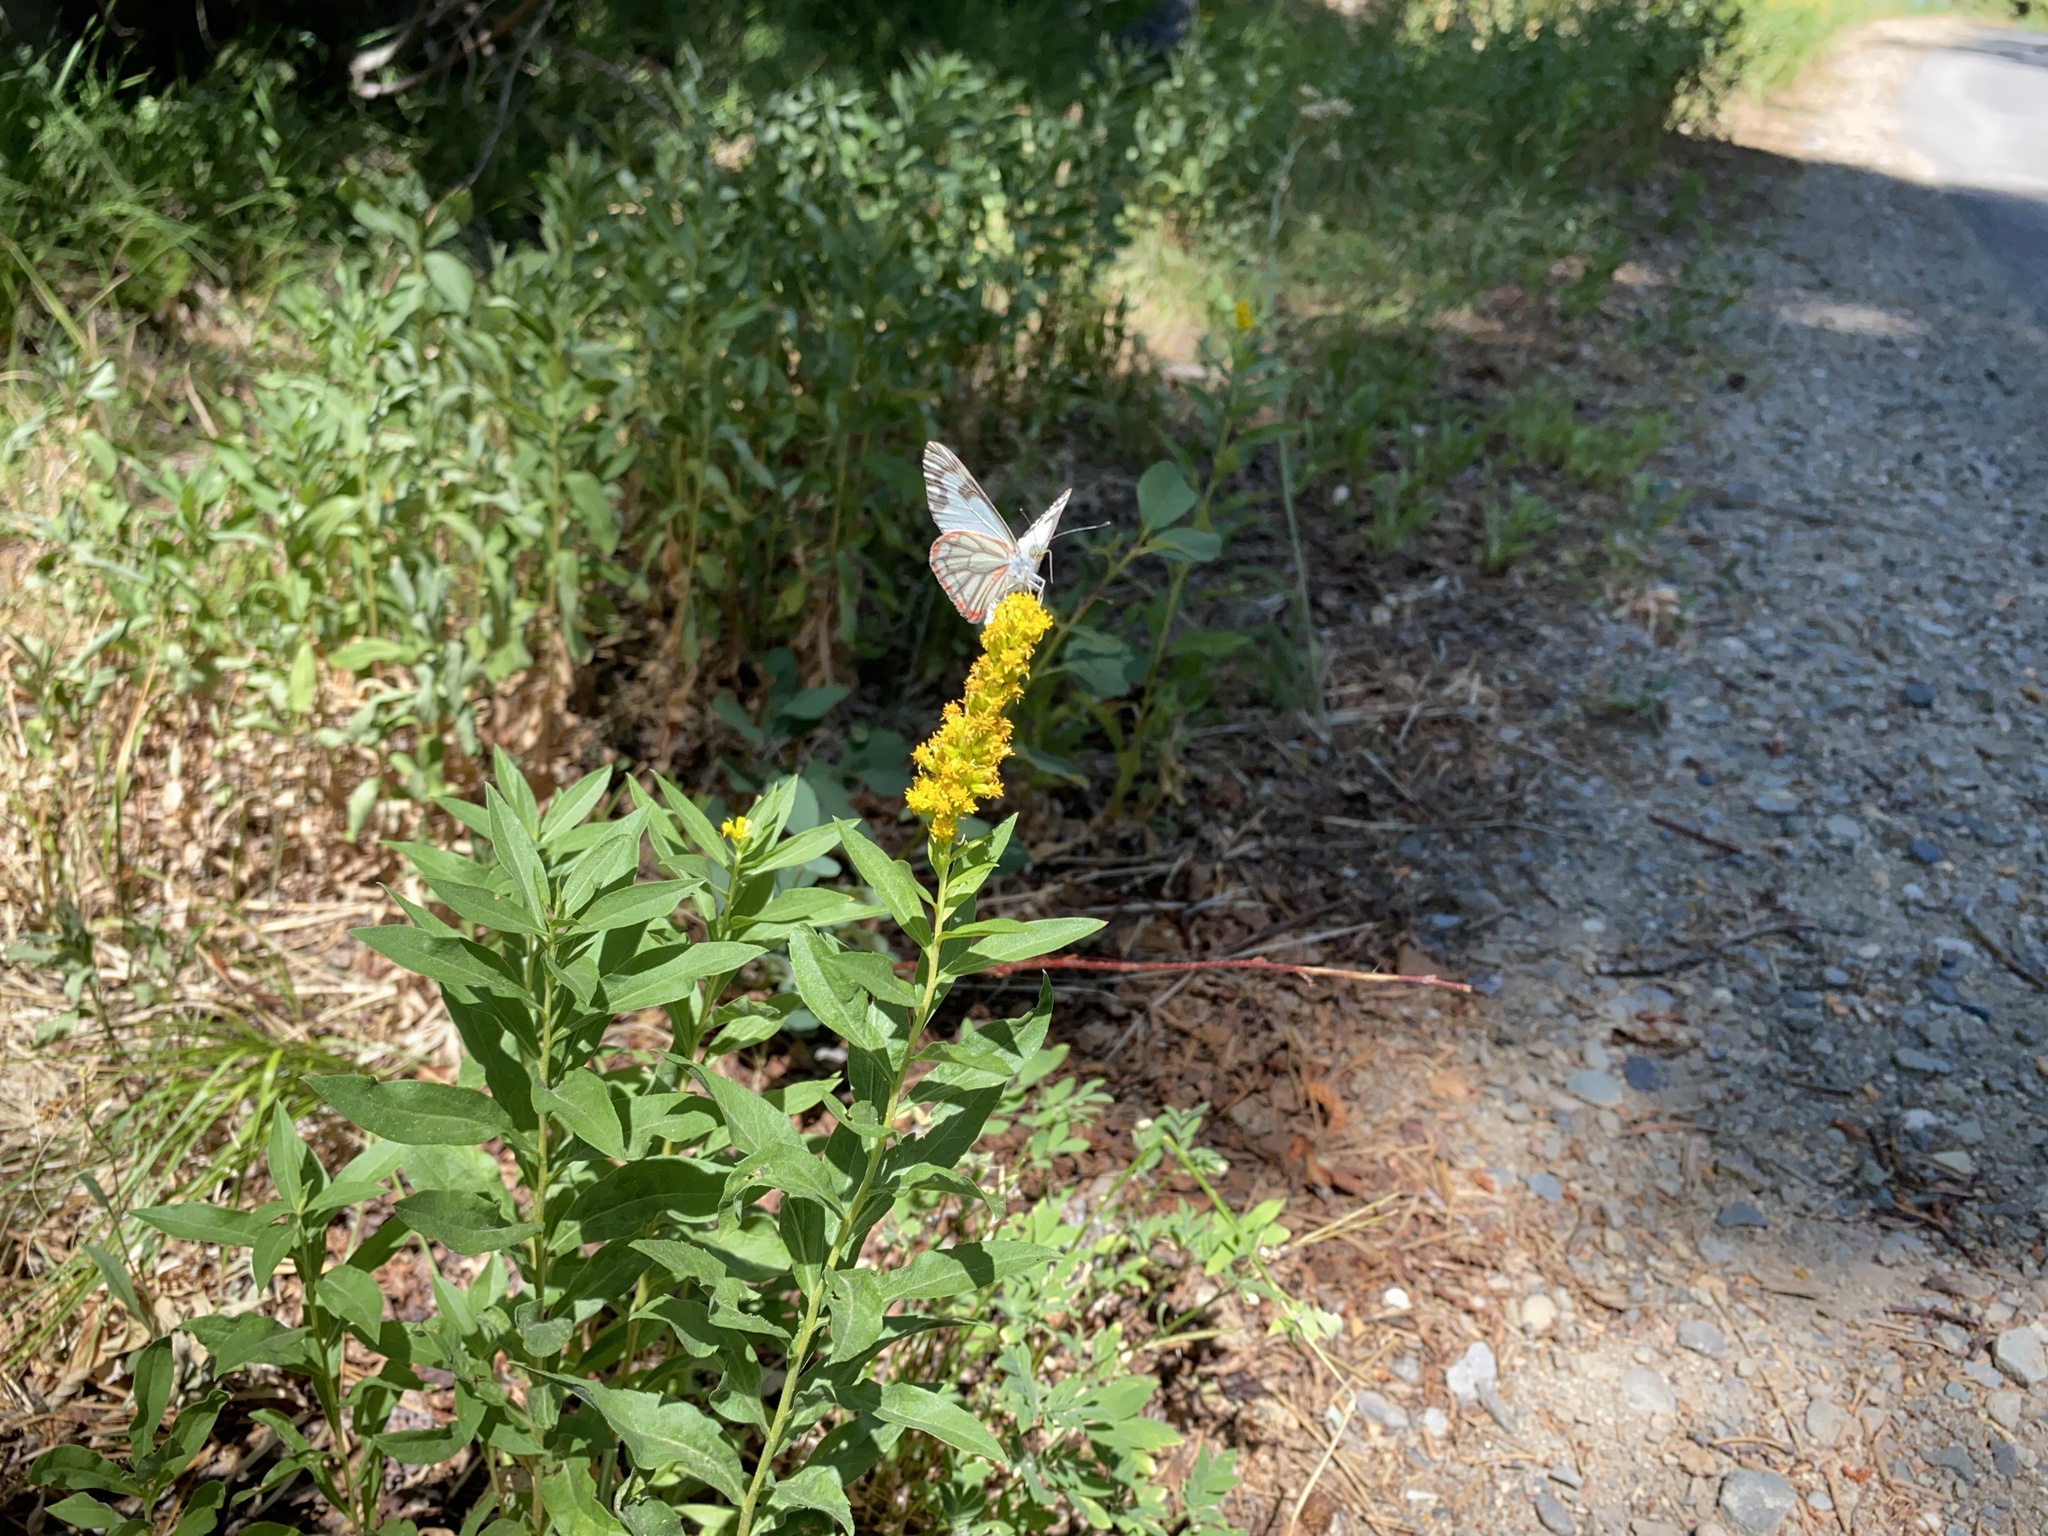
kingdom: Animalia
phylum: Arthropoda
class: Insecta
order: Lepidoptera
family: Pieridae
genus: Neophasia
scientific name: Neophasia menapia
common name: Pine white
